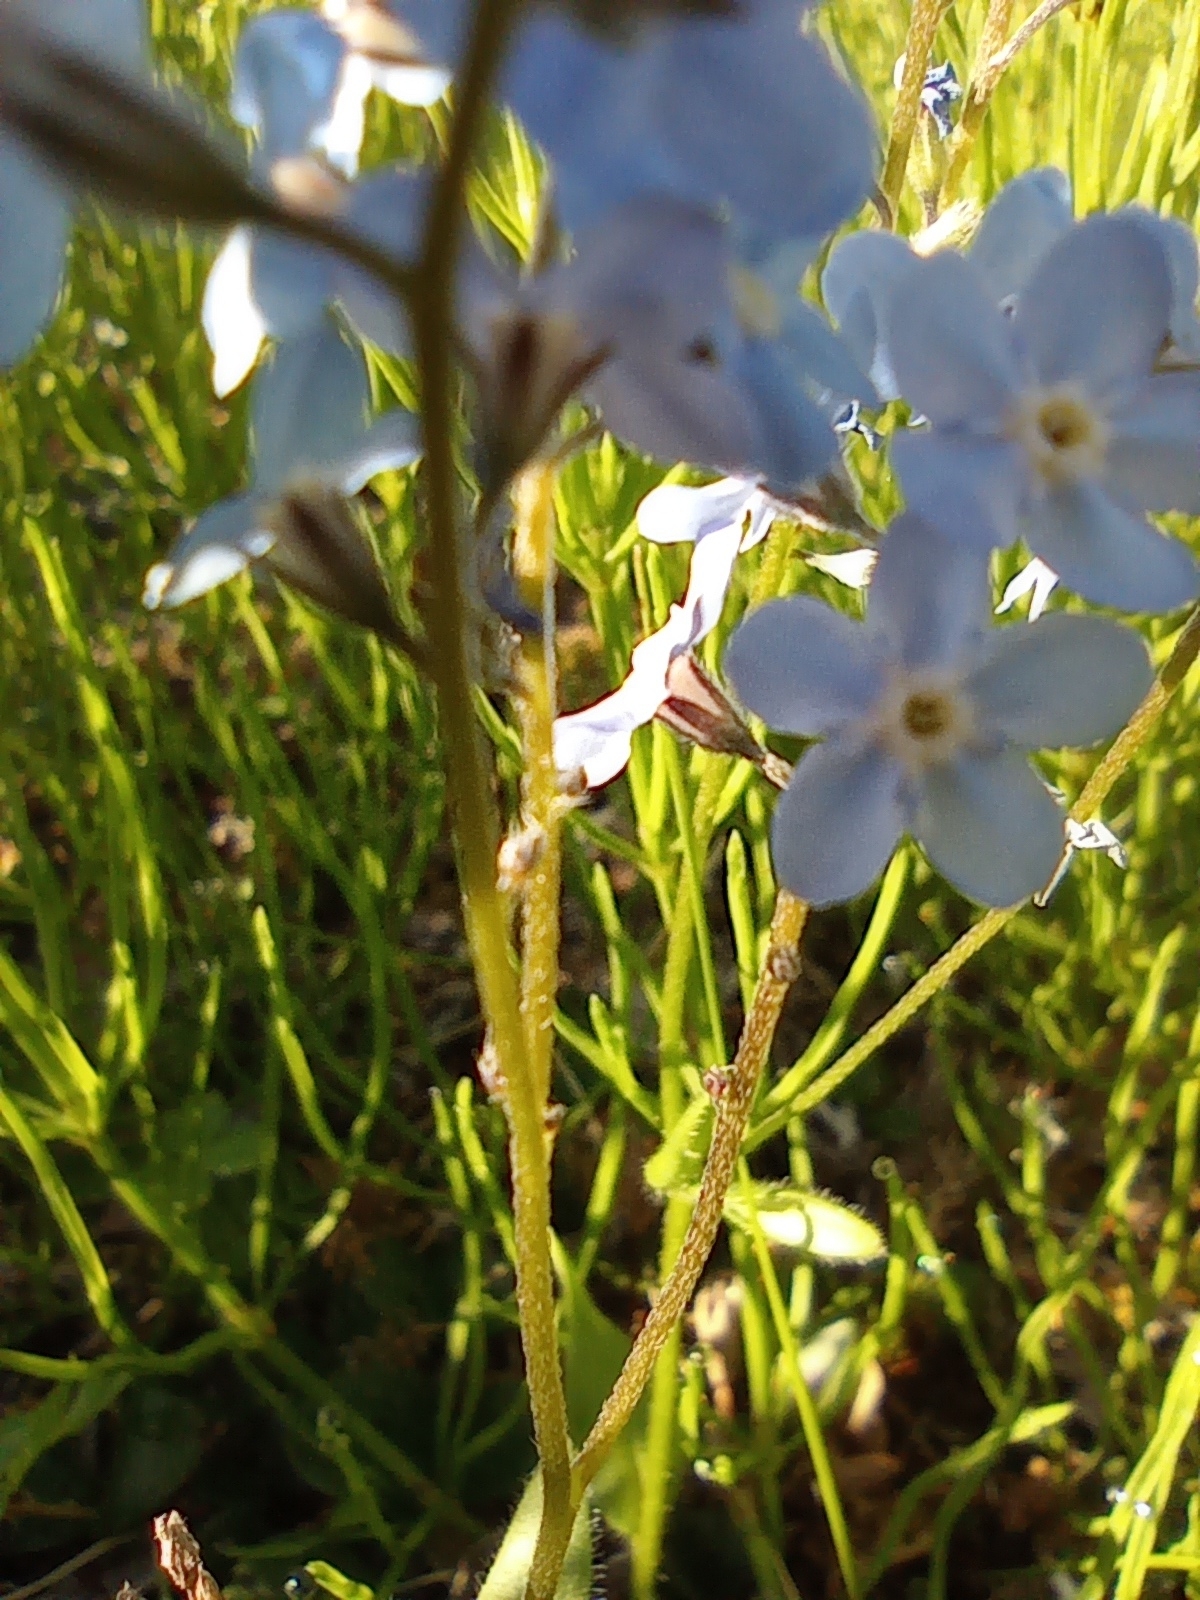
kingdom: Plantae
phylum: Tracheophyta
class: Magnoliopsida
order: Boraginales
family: Boraginaceae
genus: Myosotis
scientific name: Myosotis asiatica
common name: Asian forget-me-not
